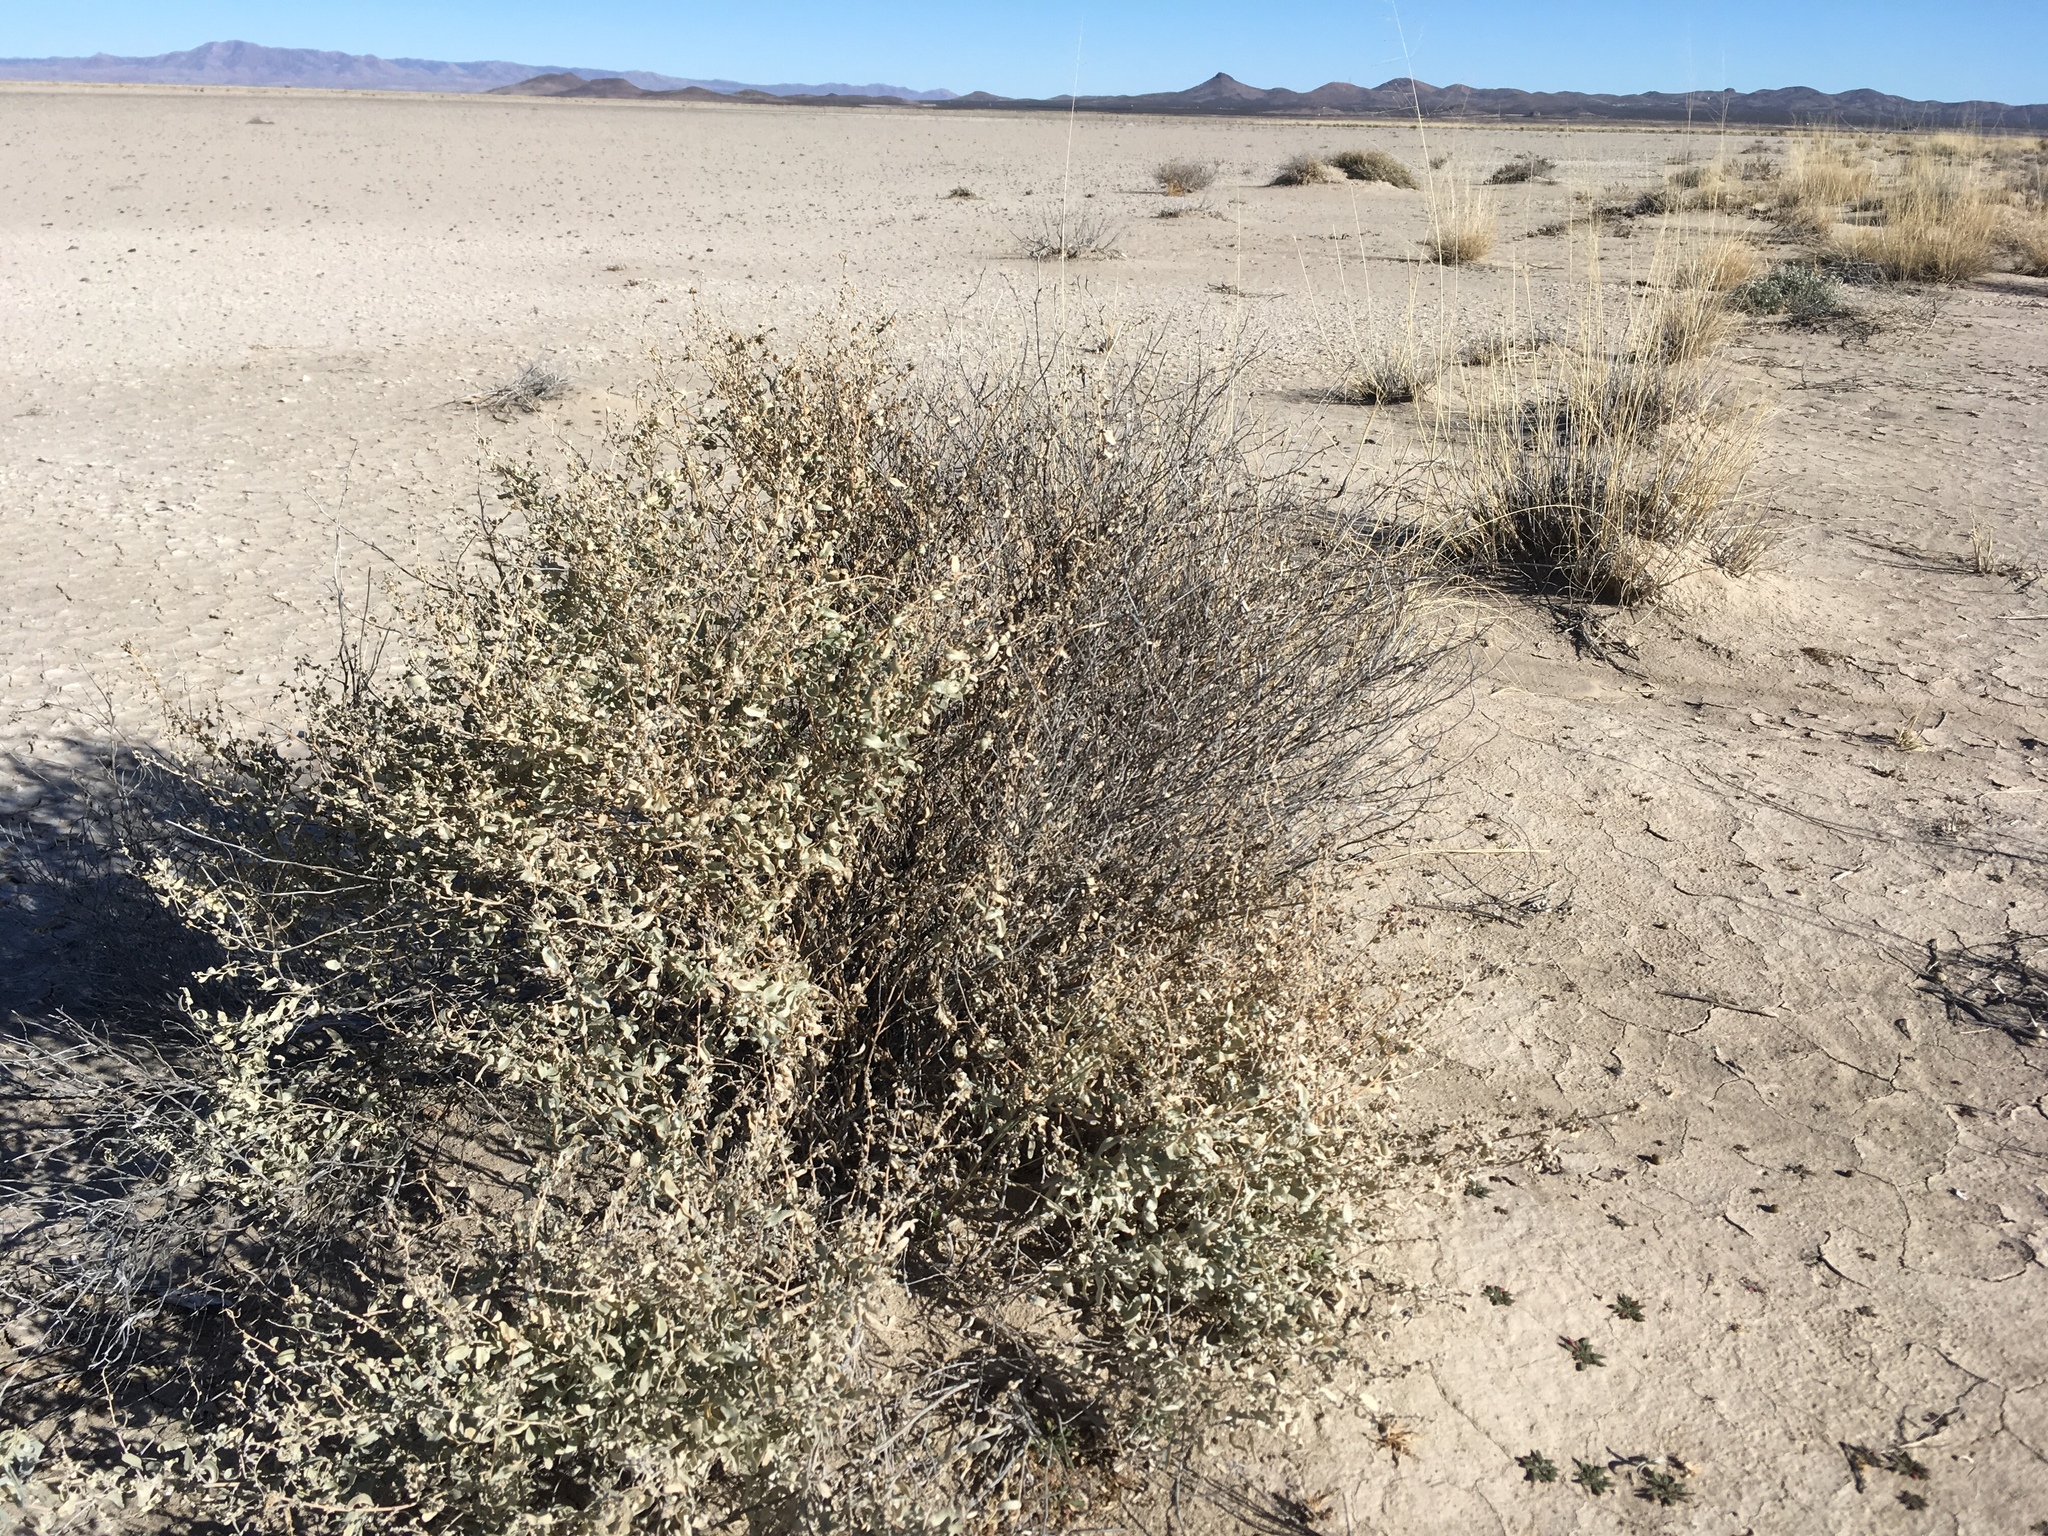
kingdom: Plantae
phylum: Tracheophyta
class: Magnoliopsida
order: Caryophyllales
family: Amaranthaceae
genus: Atriplex
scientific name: Atriplex torreyi
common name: Torrey's saltbush
